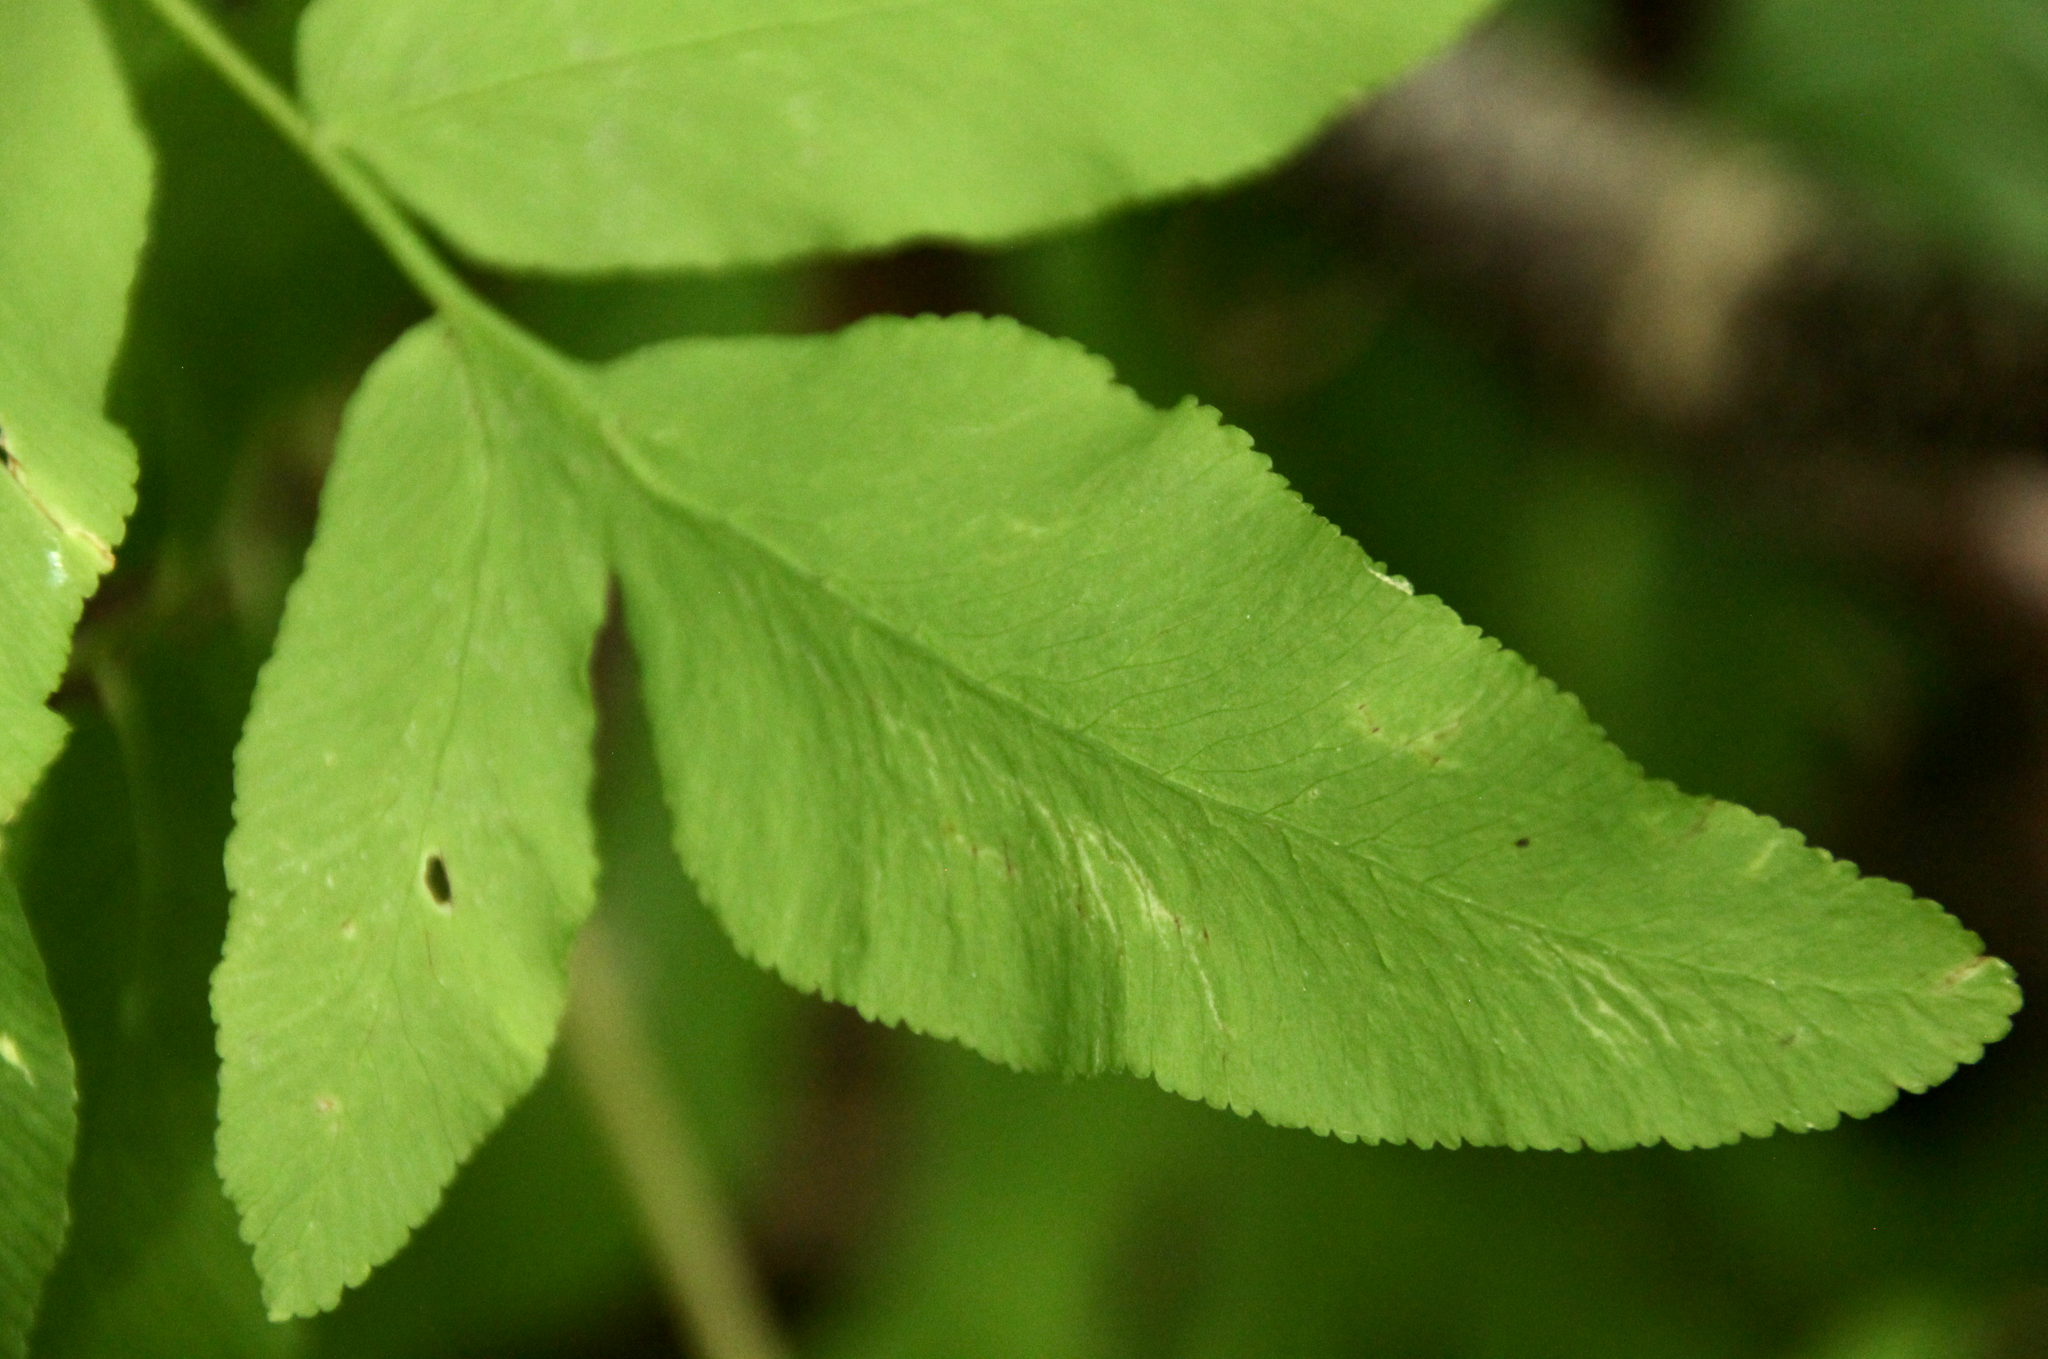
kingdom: Plantae
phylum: Tracheophyta
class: Polypodiopsida
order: Osmundales
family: Osmundaceae
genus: Osmunda
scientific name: Osmunda spectabilis
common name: American royal fern
